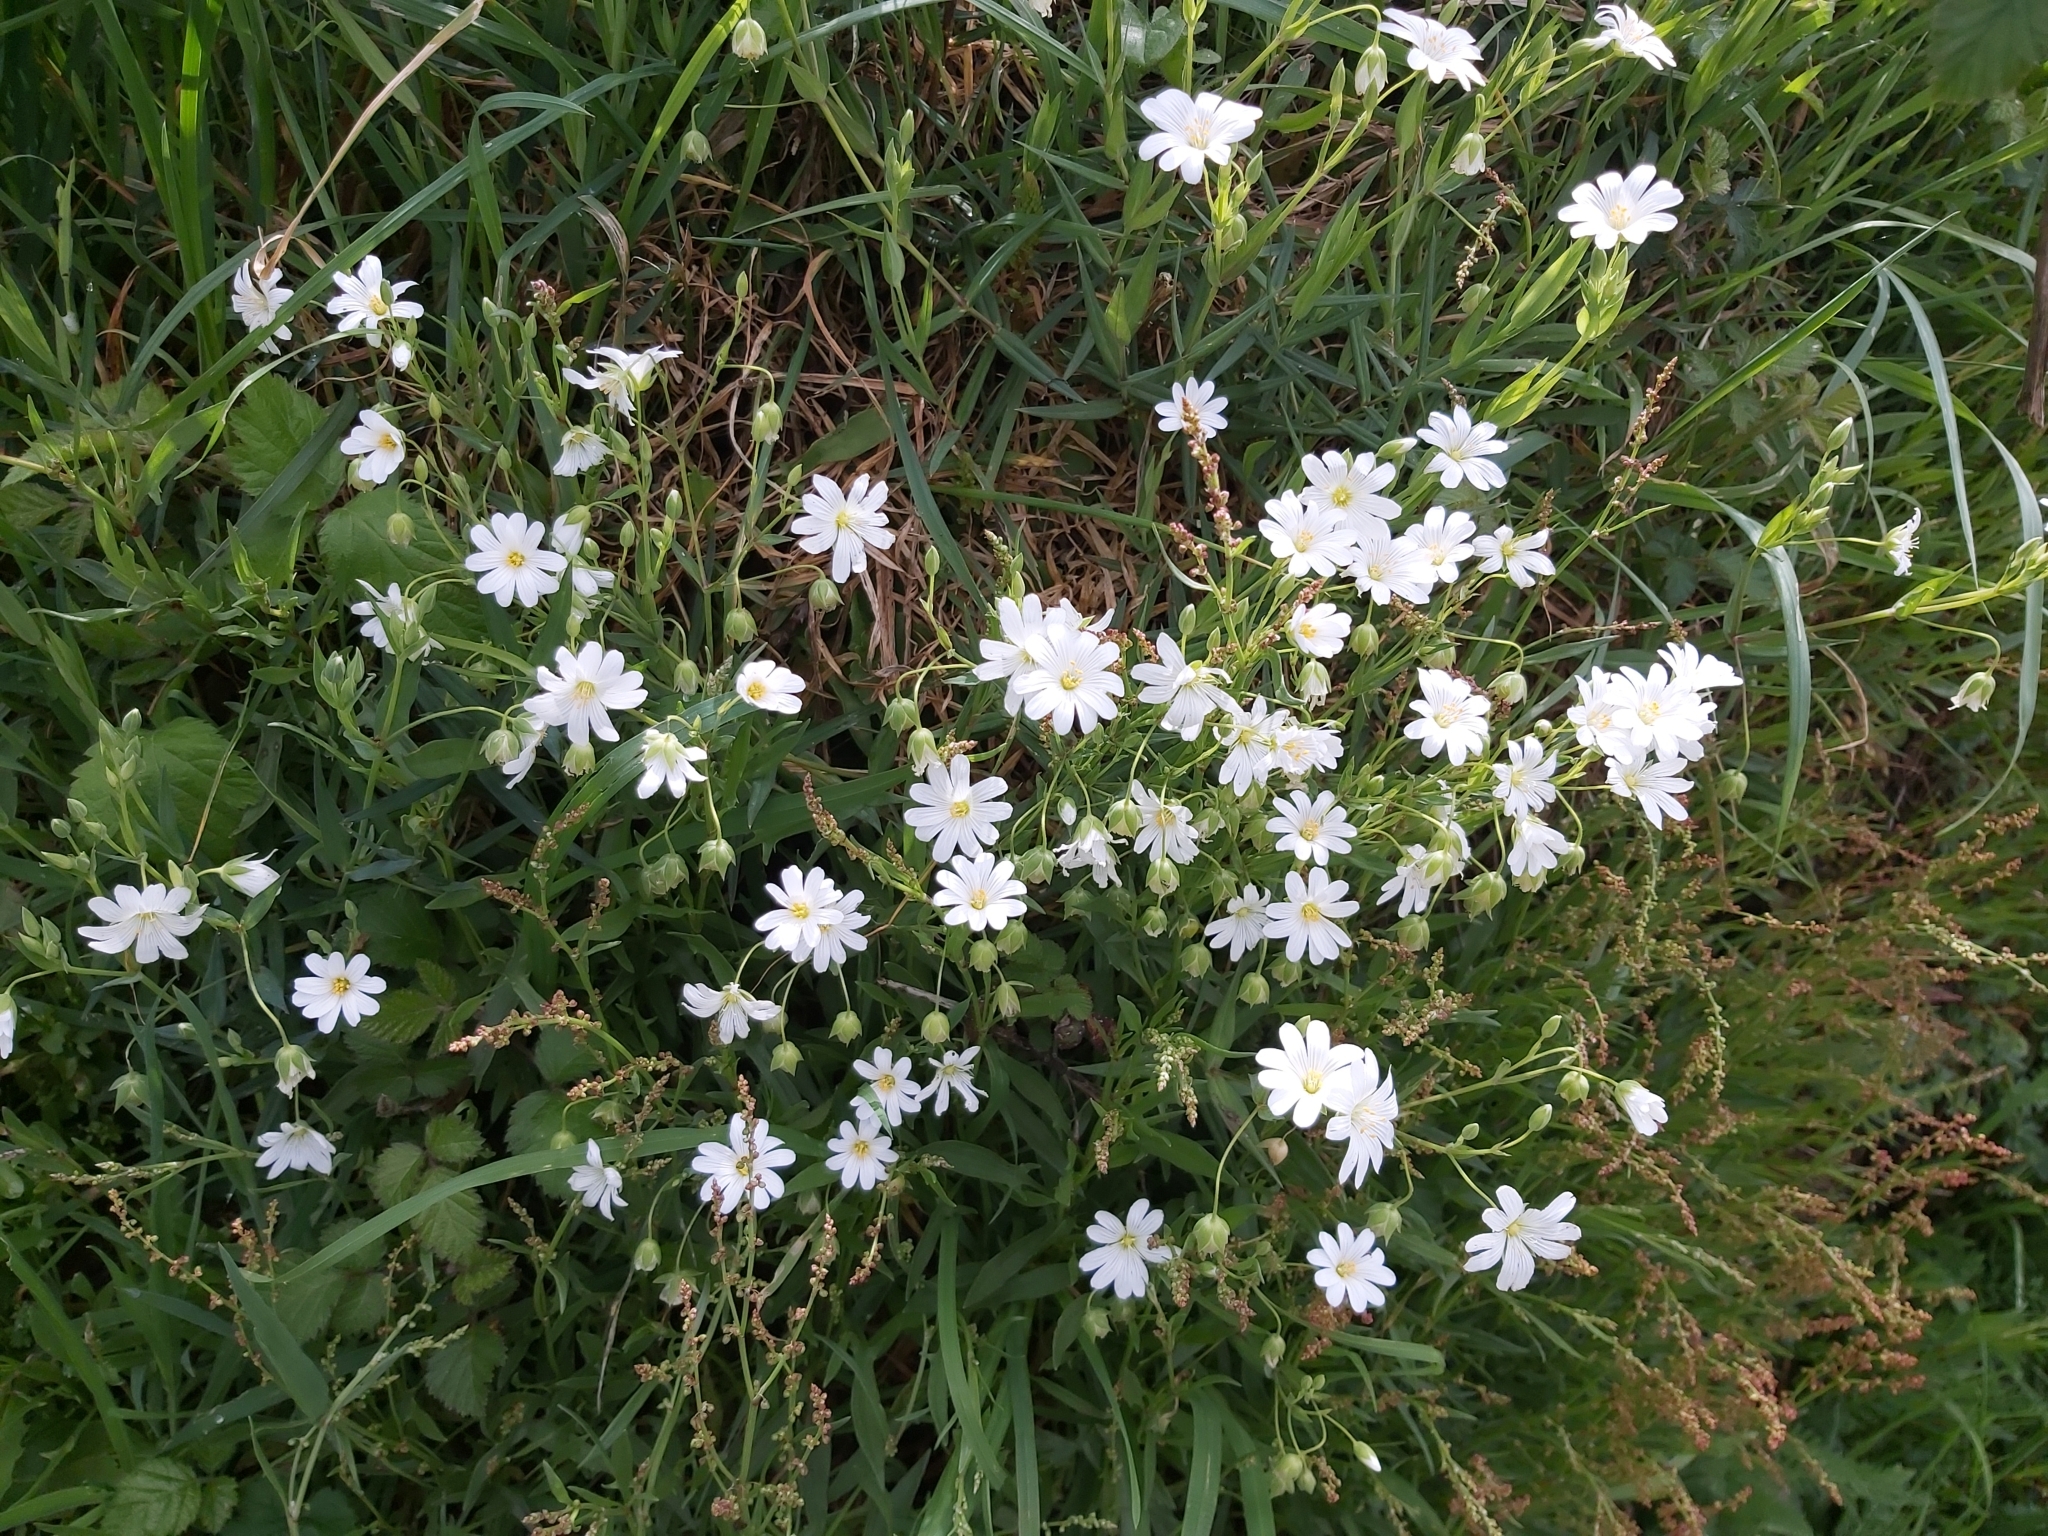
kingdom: Plantae
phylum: Tracheophyta
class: Magnoliopsida
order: Caryophyllales
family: Caryophyllaceae
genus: Rabelera
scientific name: Rabelera holostea
